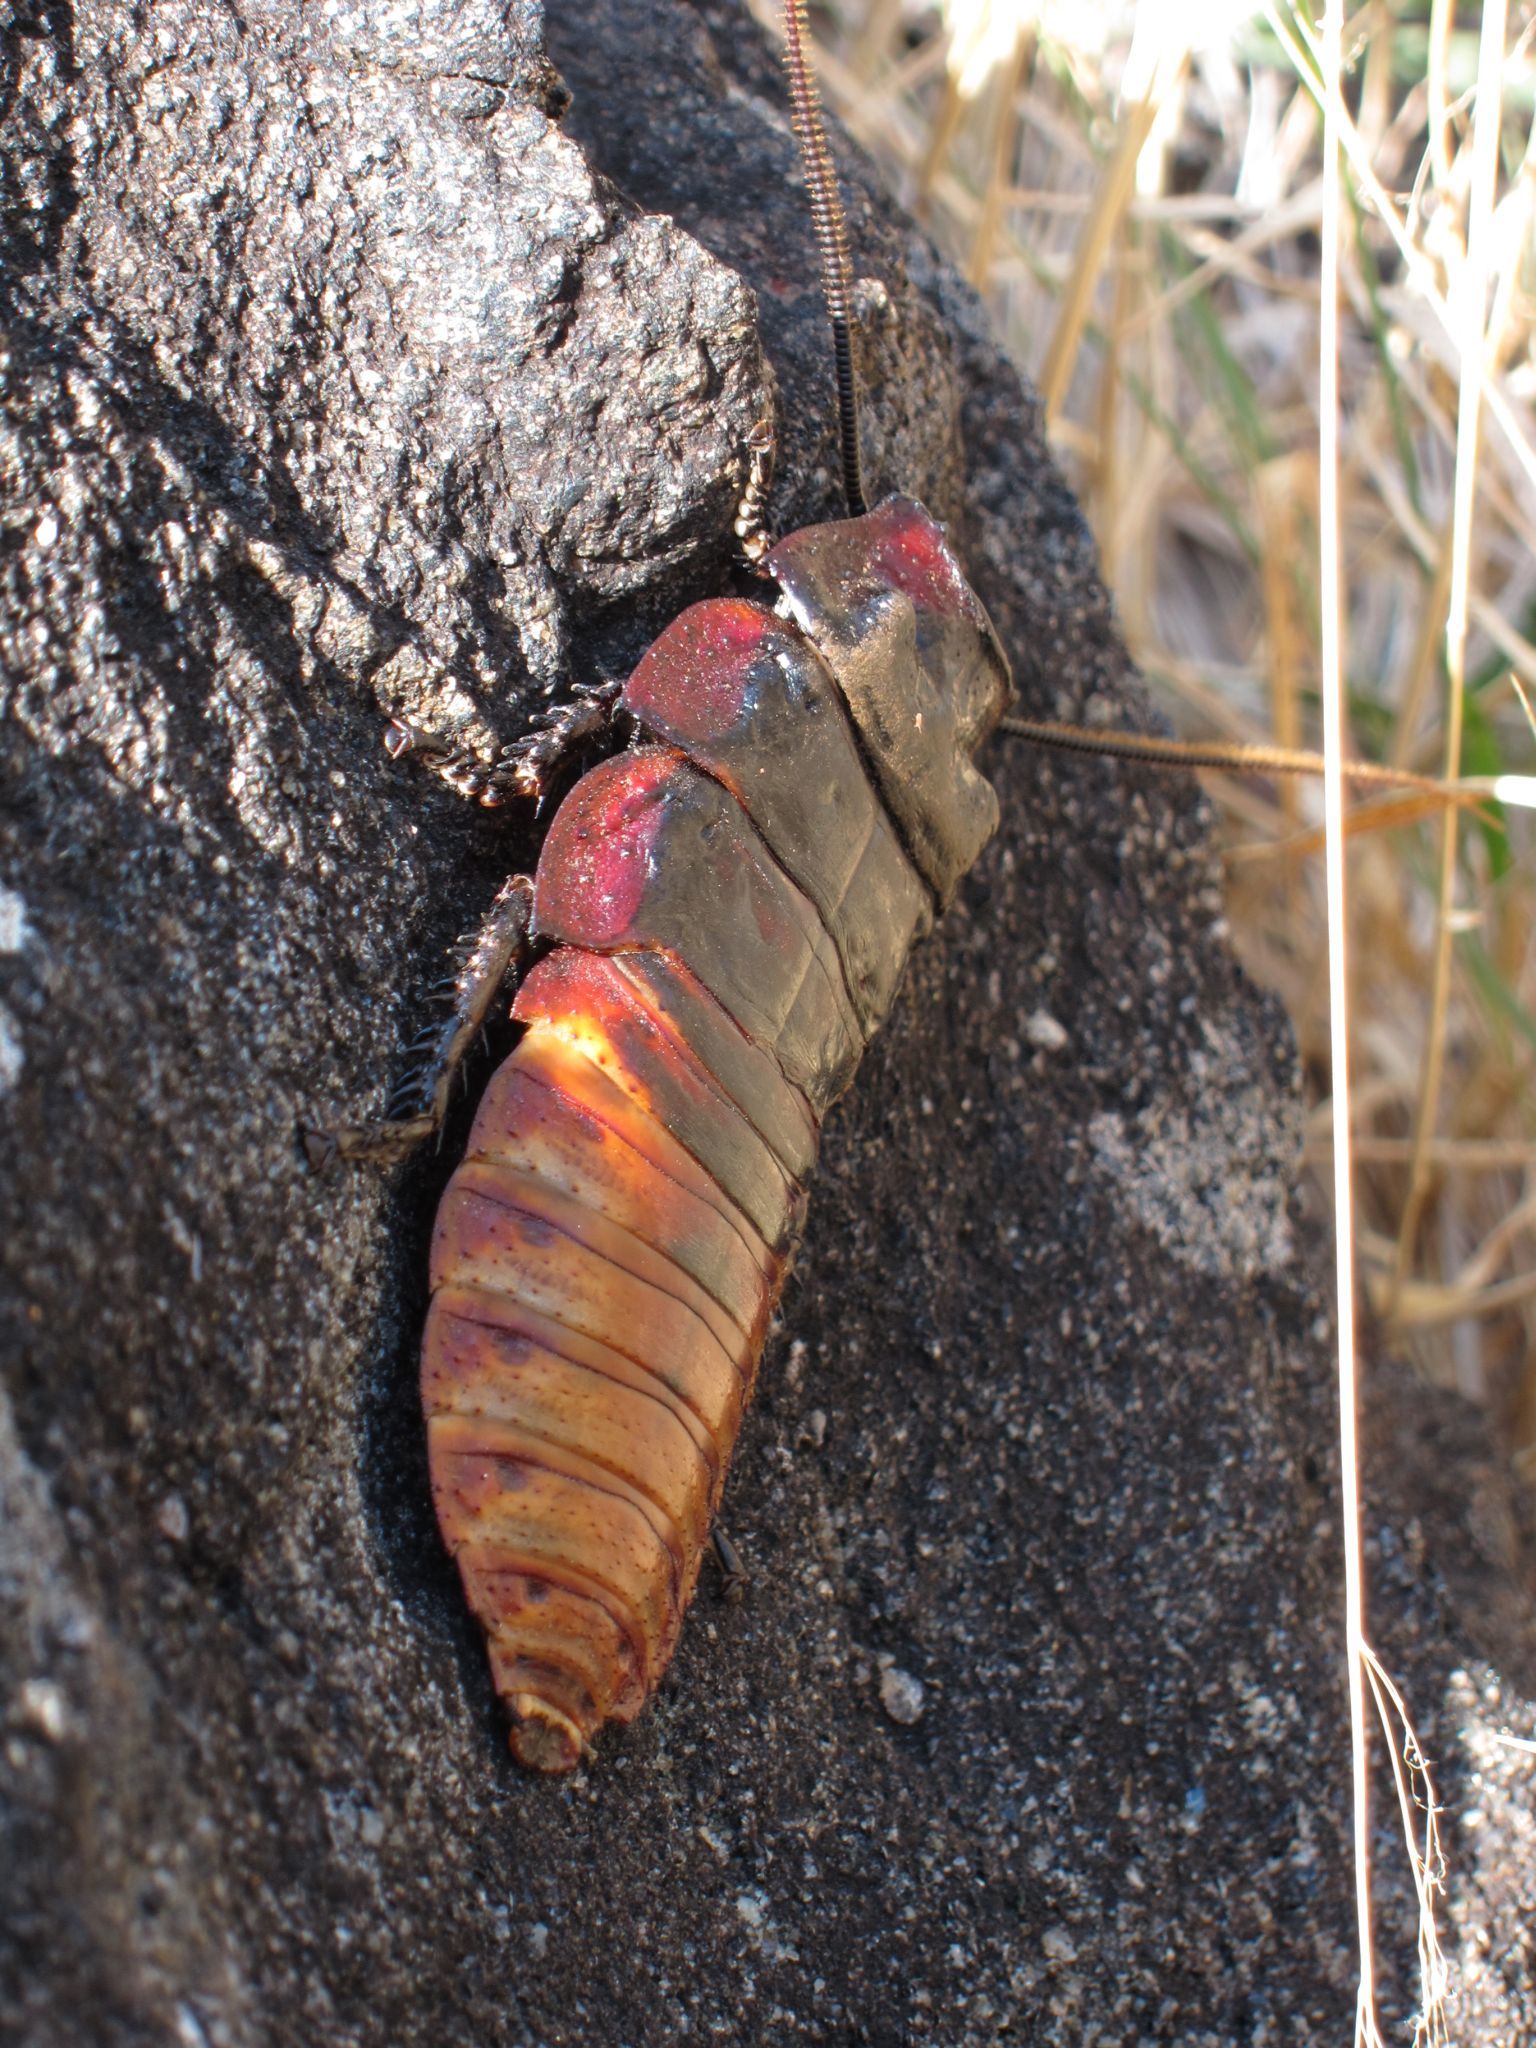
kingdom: Animalia
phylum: Arthropoda
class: Insecta
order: Blattodea
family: Blaberidae
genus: Aeluropoda
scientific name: Aeluropoda insignis
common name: Flat horned hissing cockroach
